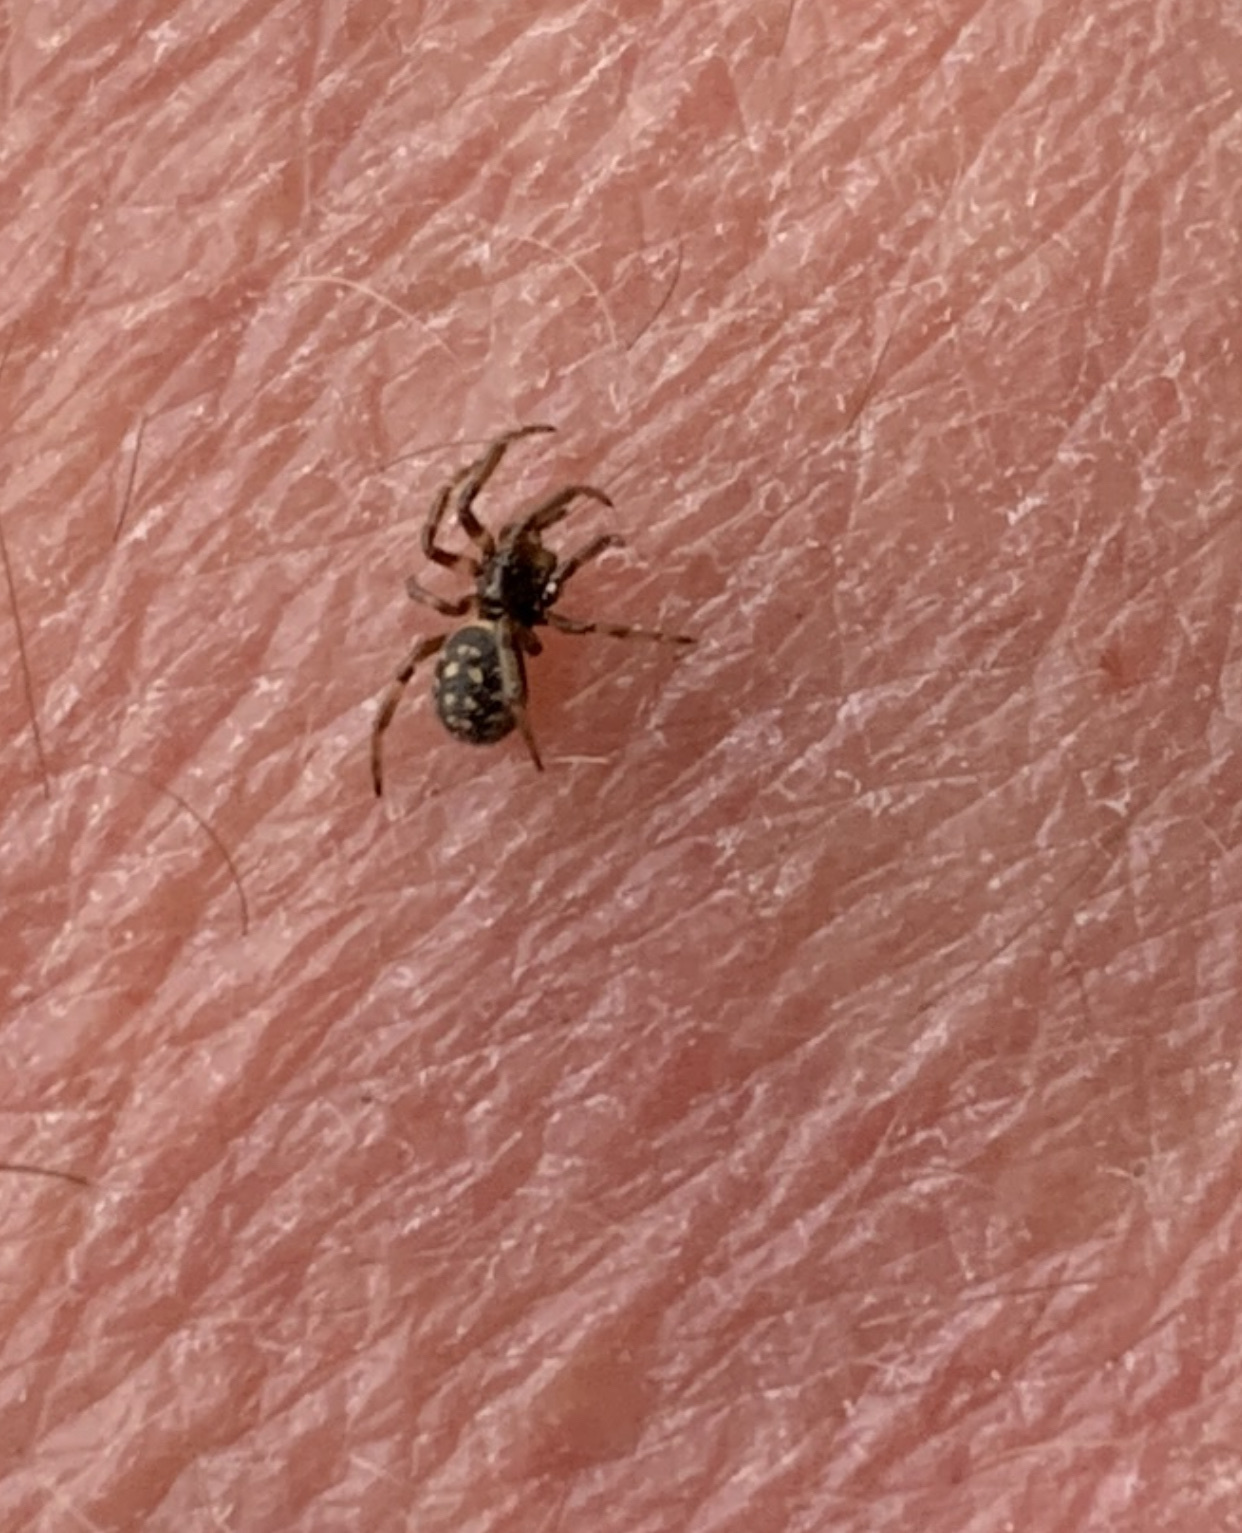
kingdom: Animalia
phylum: Arthropoda
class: Arachnida
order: Araneae
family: Theridiidae
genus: Steatoda
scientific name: Steatoda albomaculata
